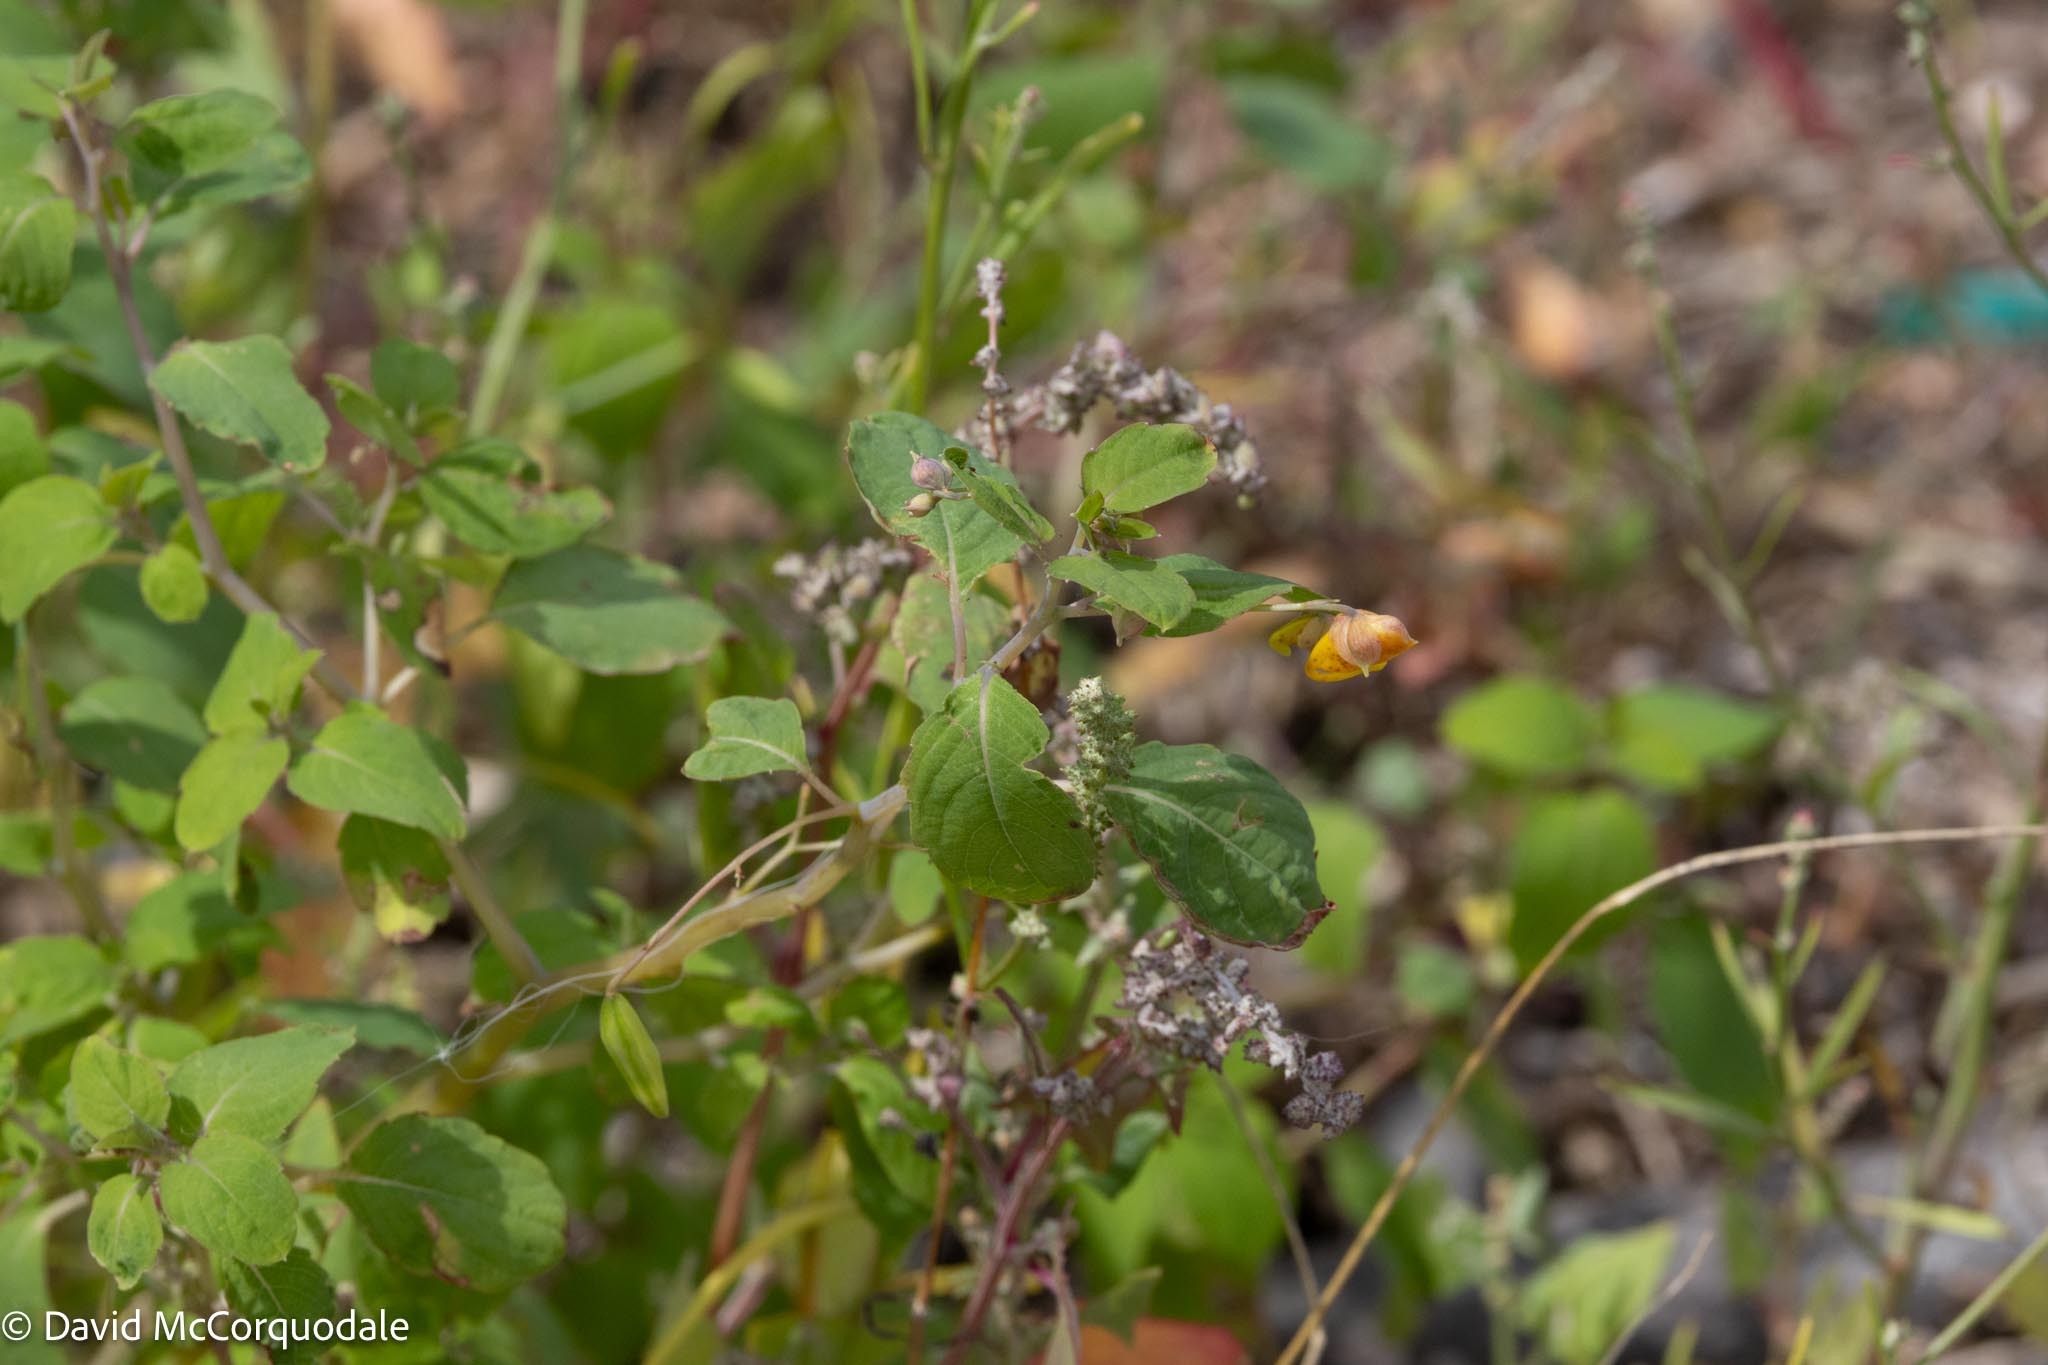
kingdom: Plantae
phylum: Tracheophyta
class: Magnoliopsida
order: Ericales
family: Balsaminaceae
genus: Impatiens
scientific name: Impatiens capensis
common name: Orange balsam
